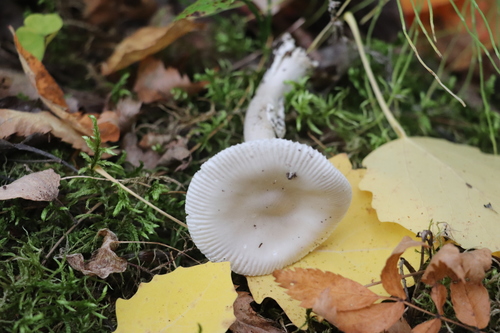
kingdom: Fungi
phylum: Basidiomycota
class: Agaricomycetes
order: Agaricales
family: Amanitaceae
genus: Amanita
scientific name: Amanita
